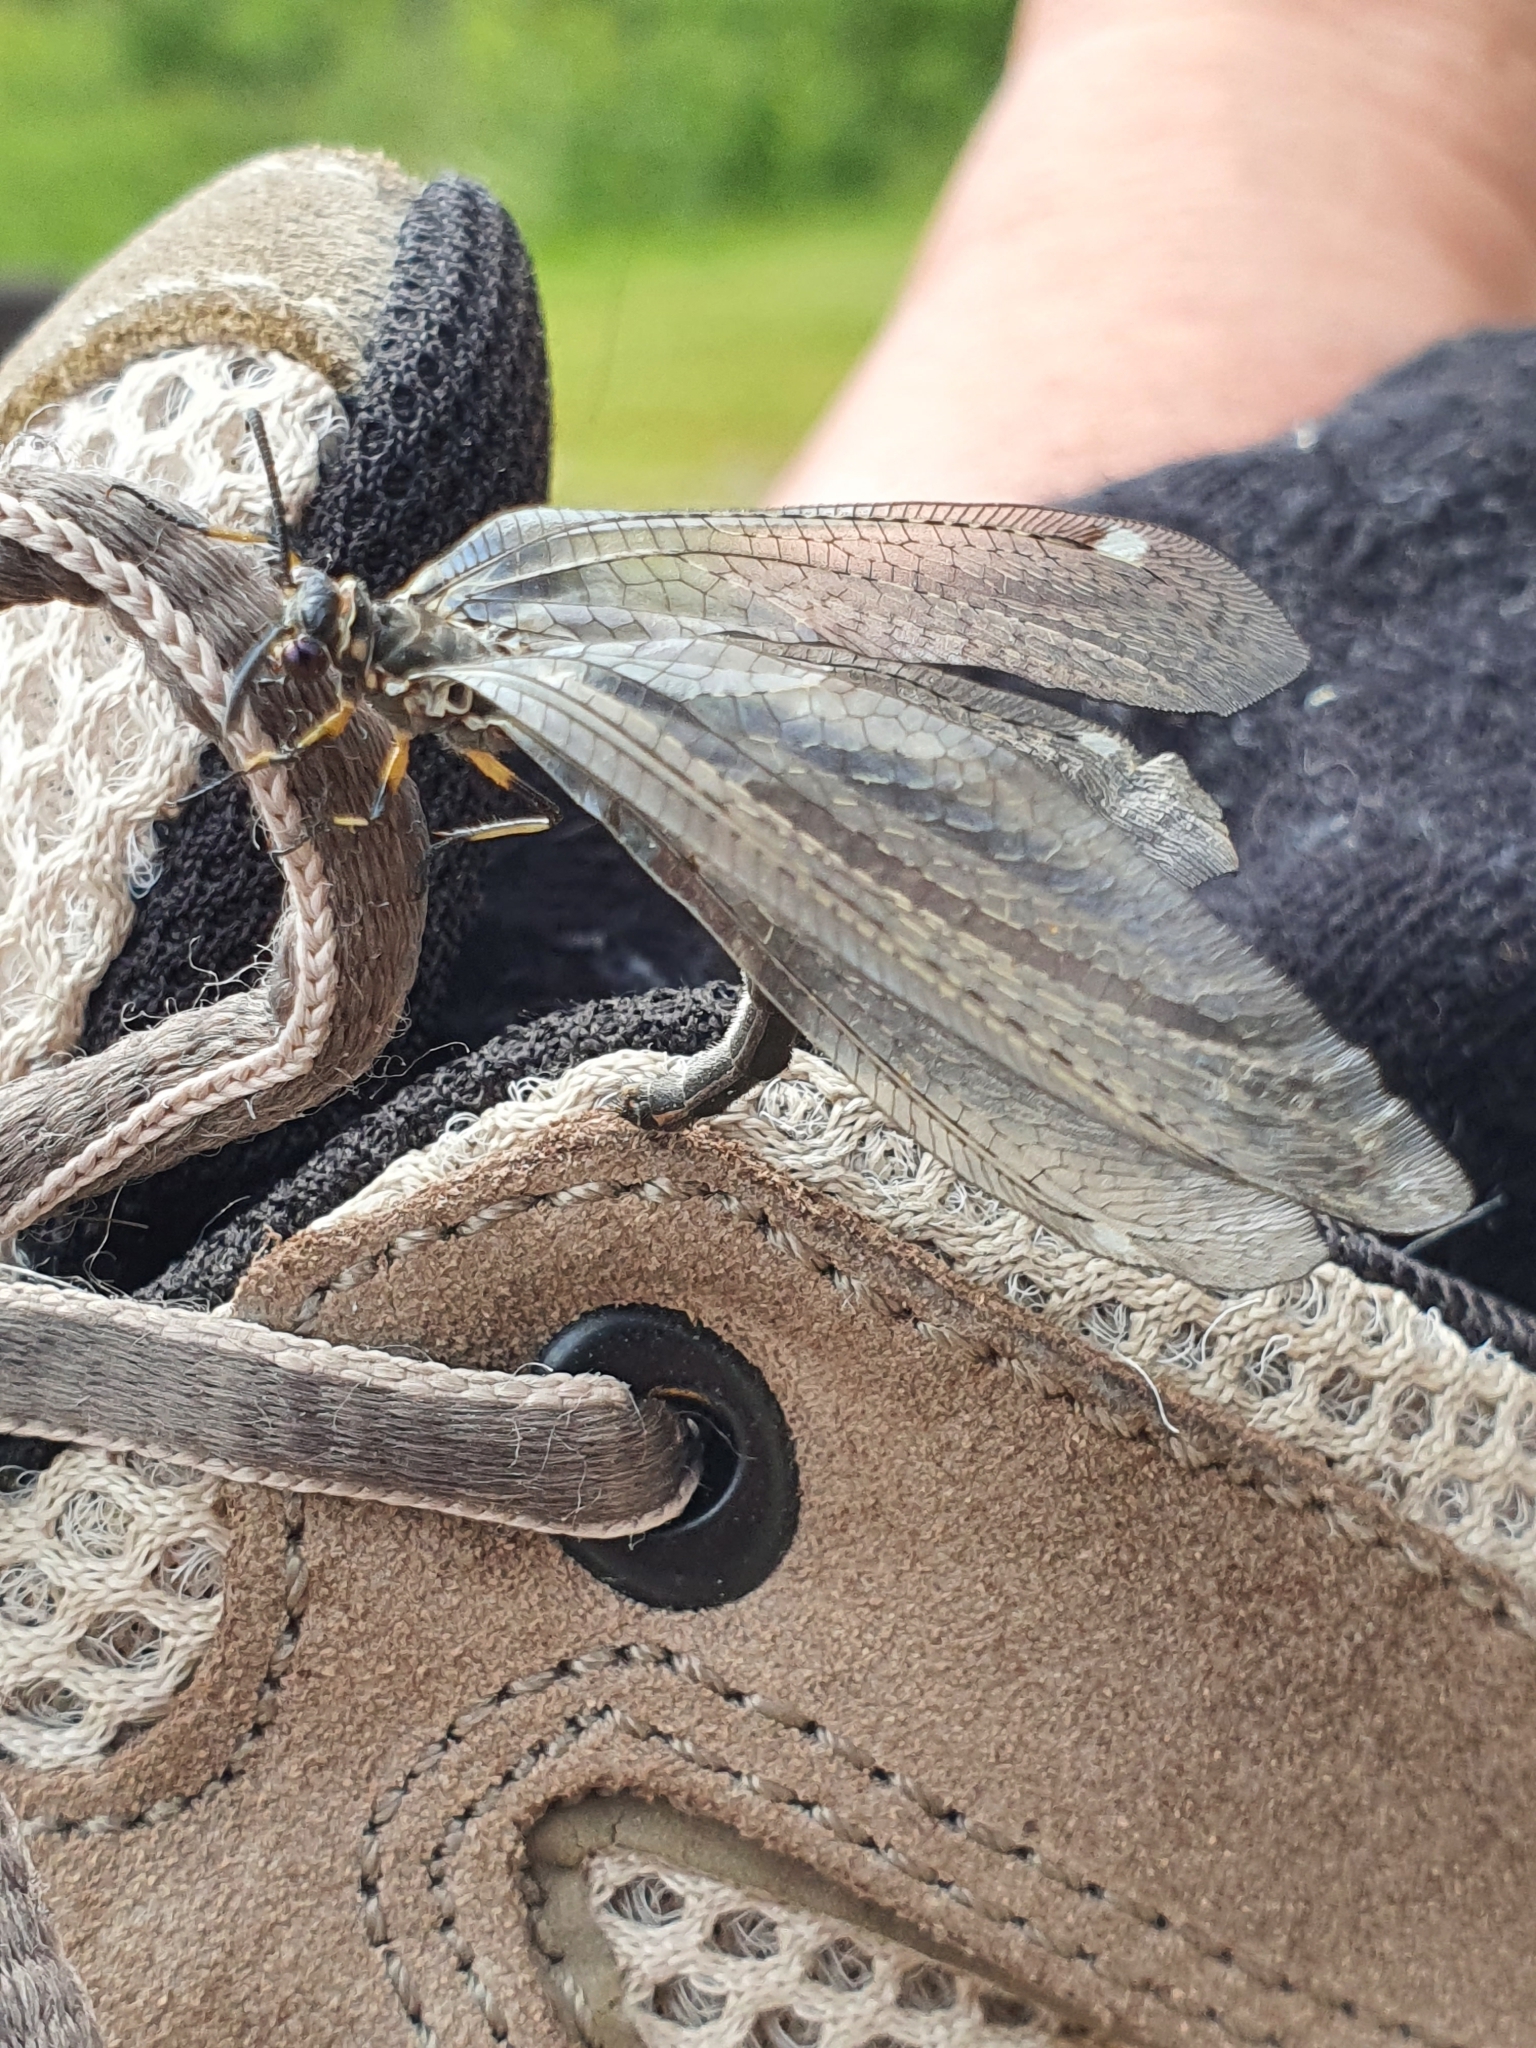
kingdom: Animalia
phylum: Arthropoda
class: Insecta
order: Neuroptera
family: Myrmeleontidae
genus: Myrmeleon
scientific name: Myrmeleon formicarius
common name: Ant-lion
